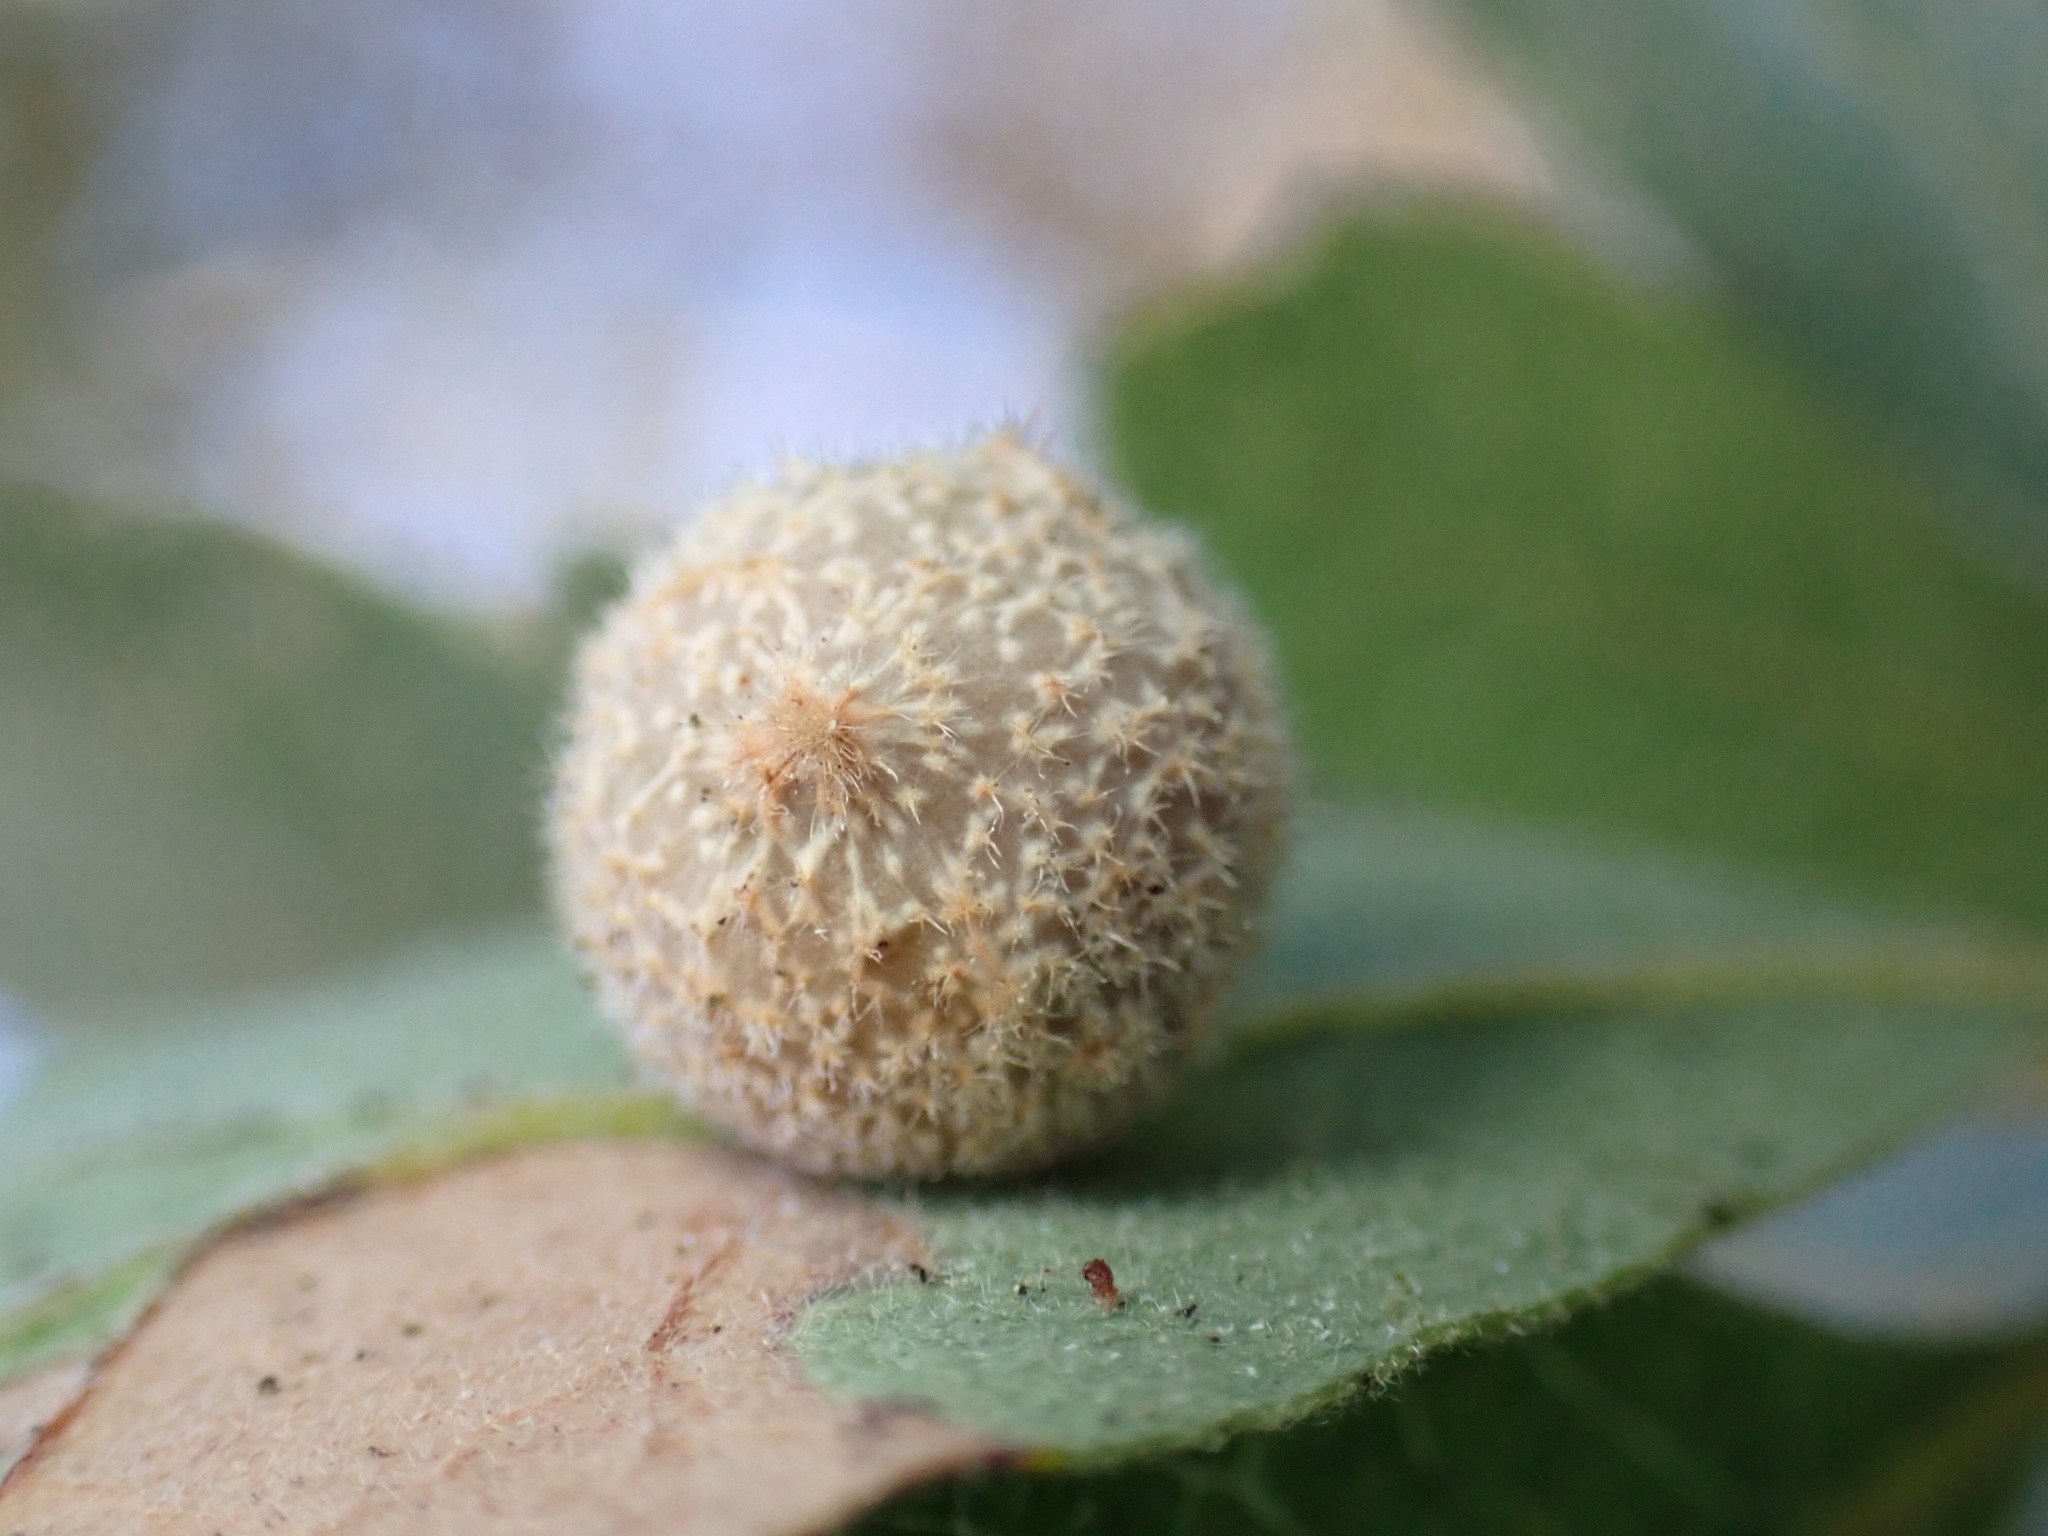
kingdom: Animalia
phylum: Arthropoda
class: Insecta
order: Hymenoptera
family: Cynipidae
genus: Cynips
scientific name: Cynips
